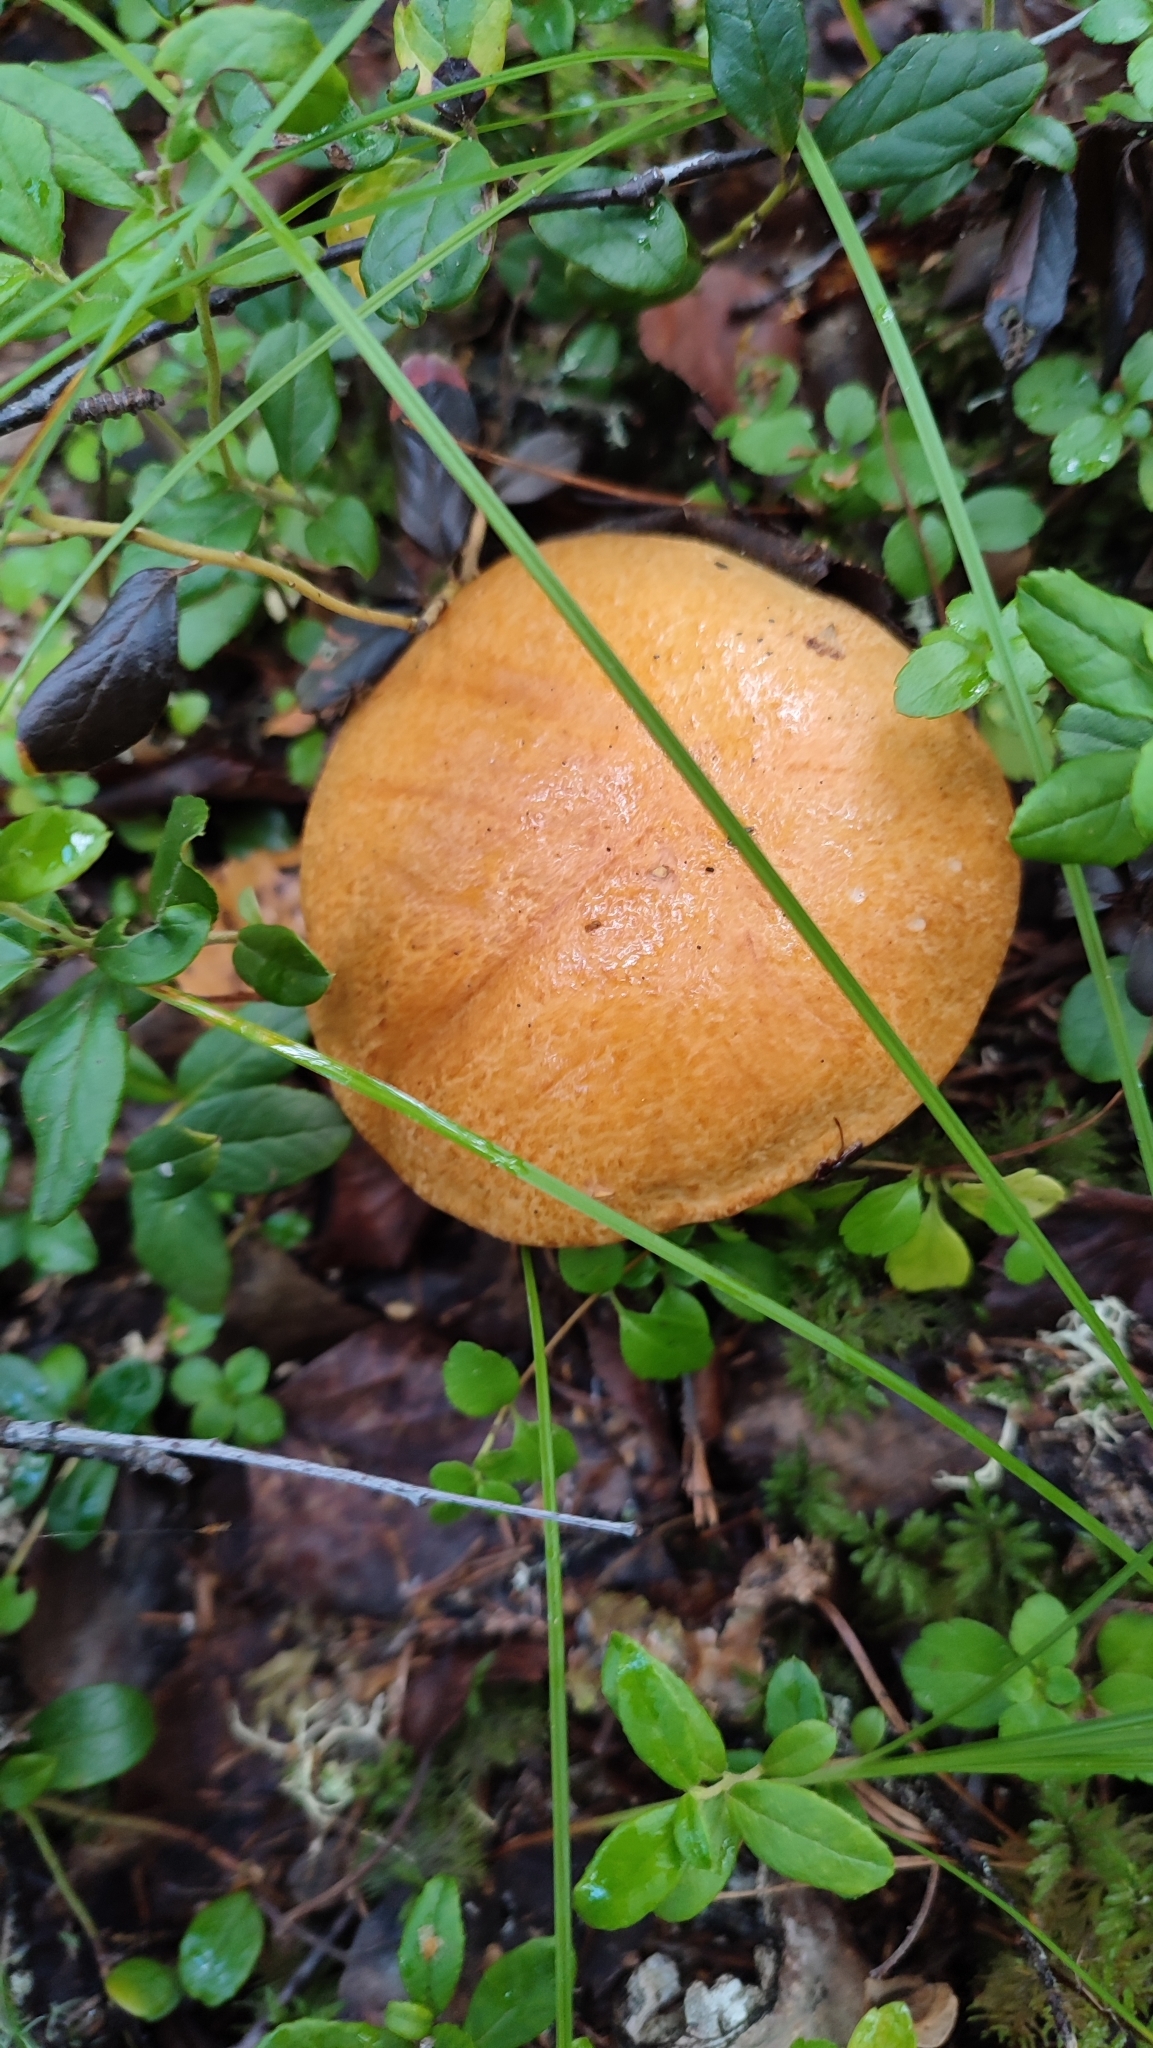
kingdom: Fungi
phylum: Basidiomycota
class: Agaricomycetes
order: Boletales
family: Boletaceae
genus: Leccinum
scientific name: Leccinum versipelle
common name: Orange birch bolete
